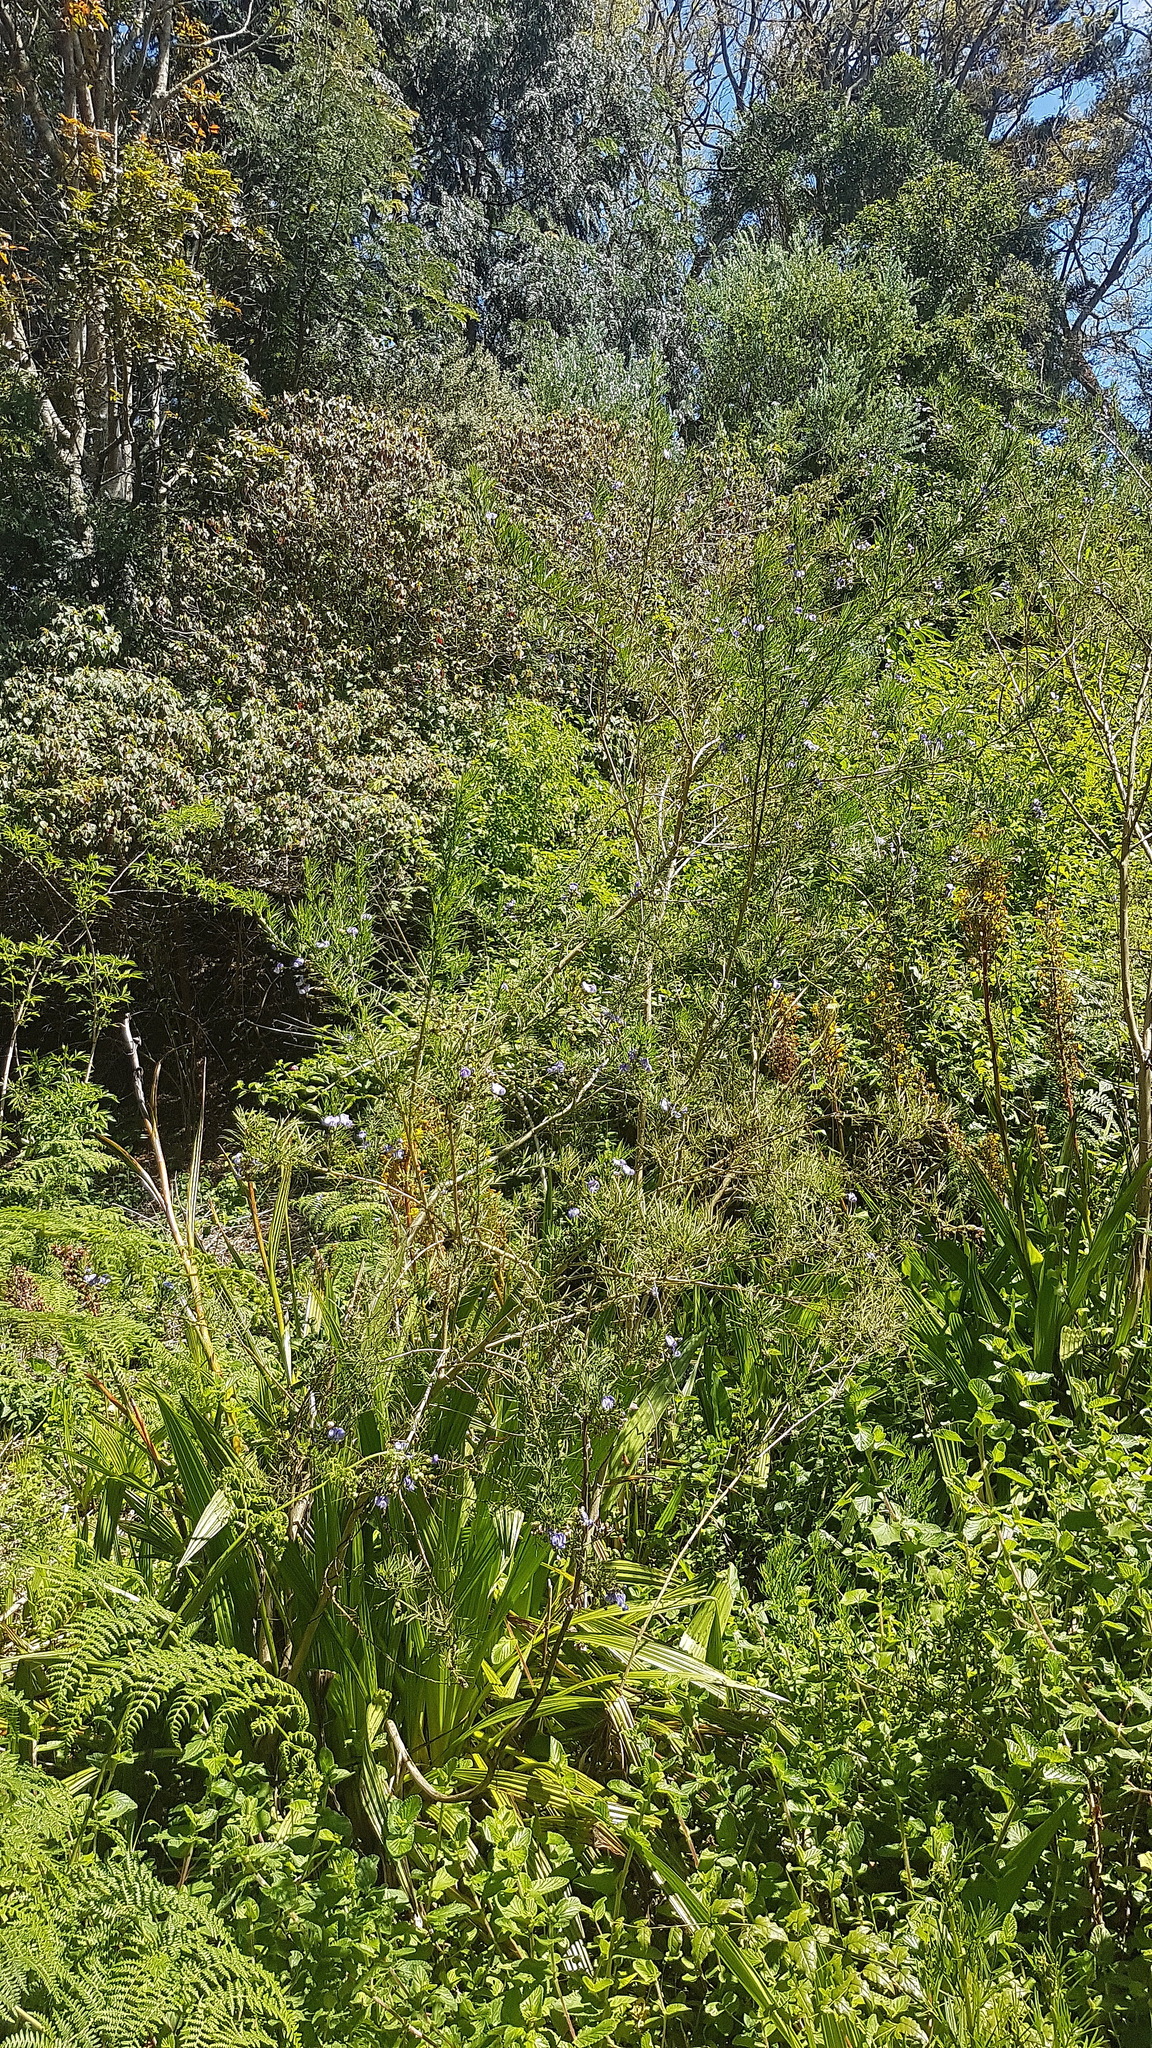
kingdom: Plantae
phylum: Tracheophyta
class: Magnoliopsida
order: Fabales
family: Fabaceae
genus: Psoralea
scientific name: Psoralea arborea
